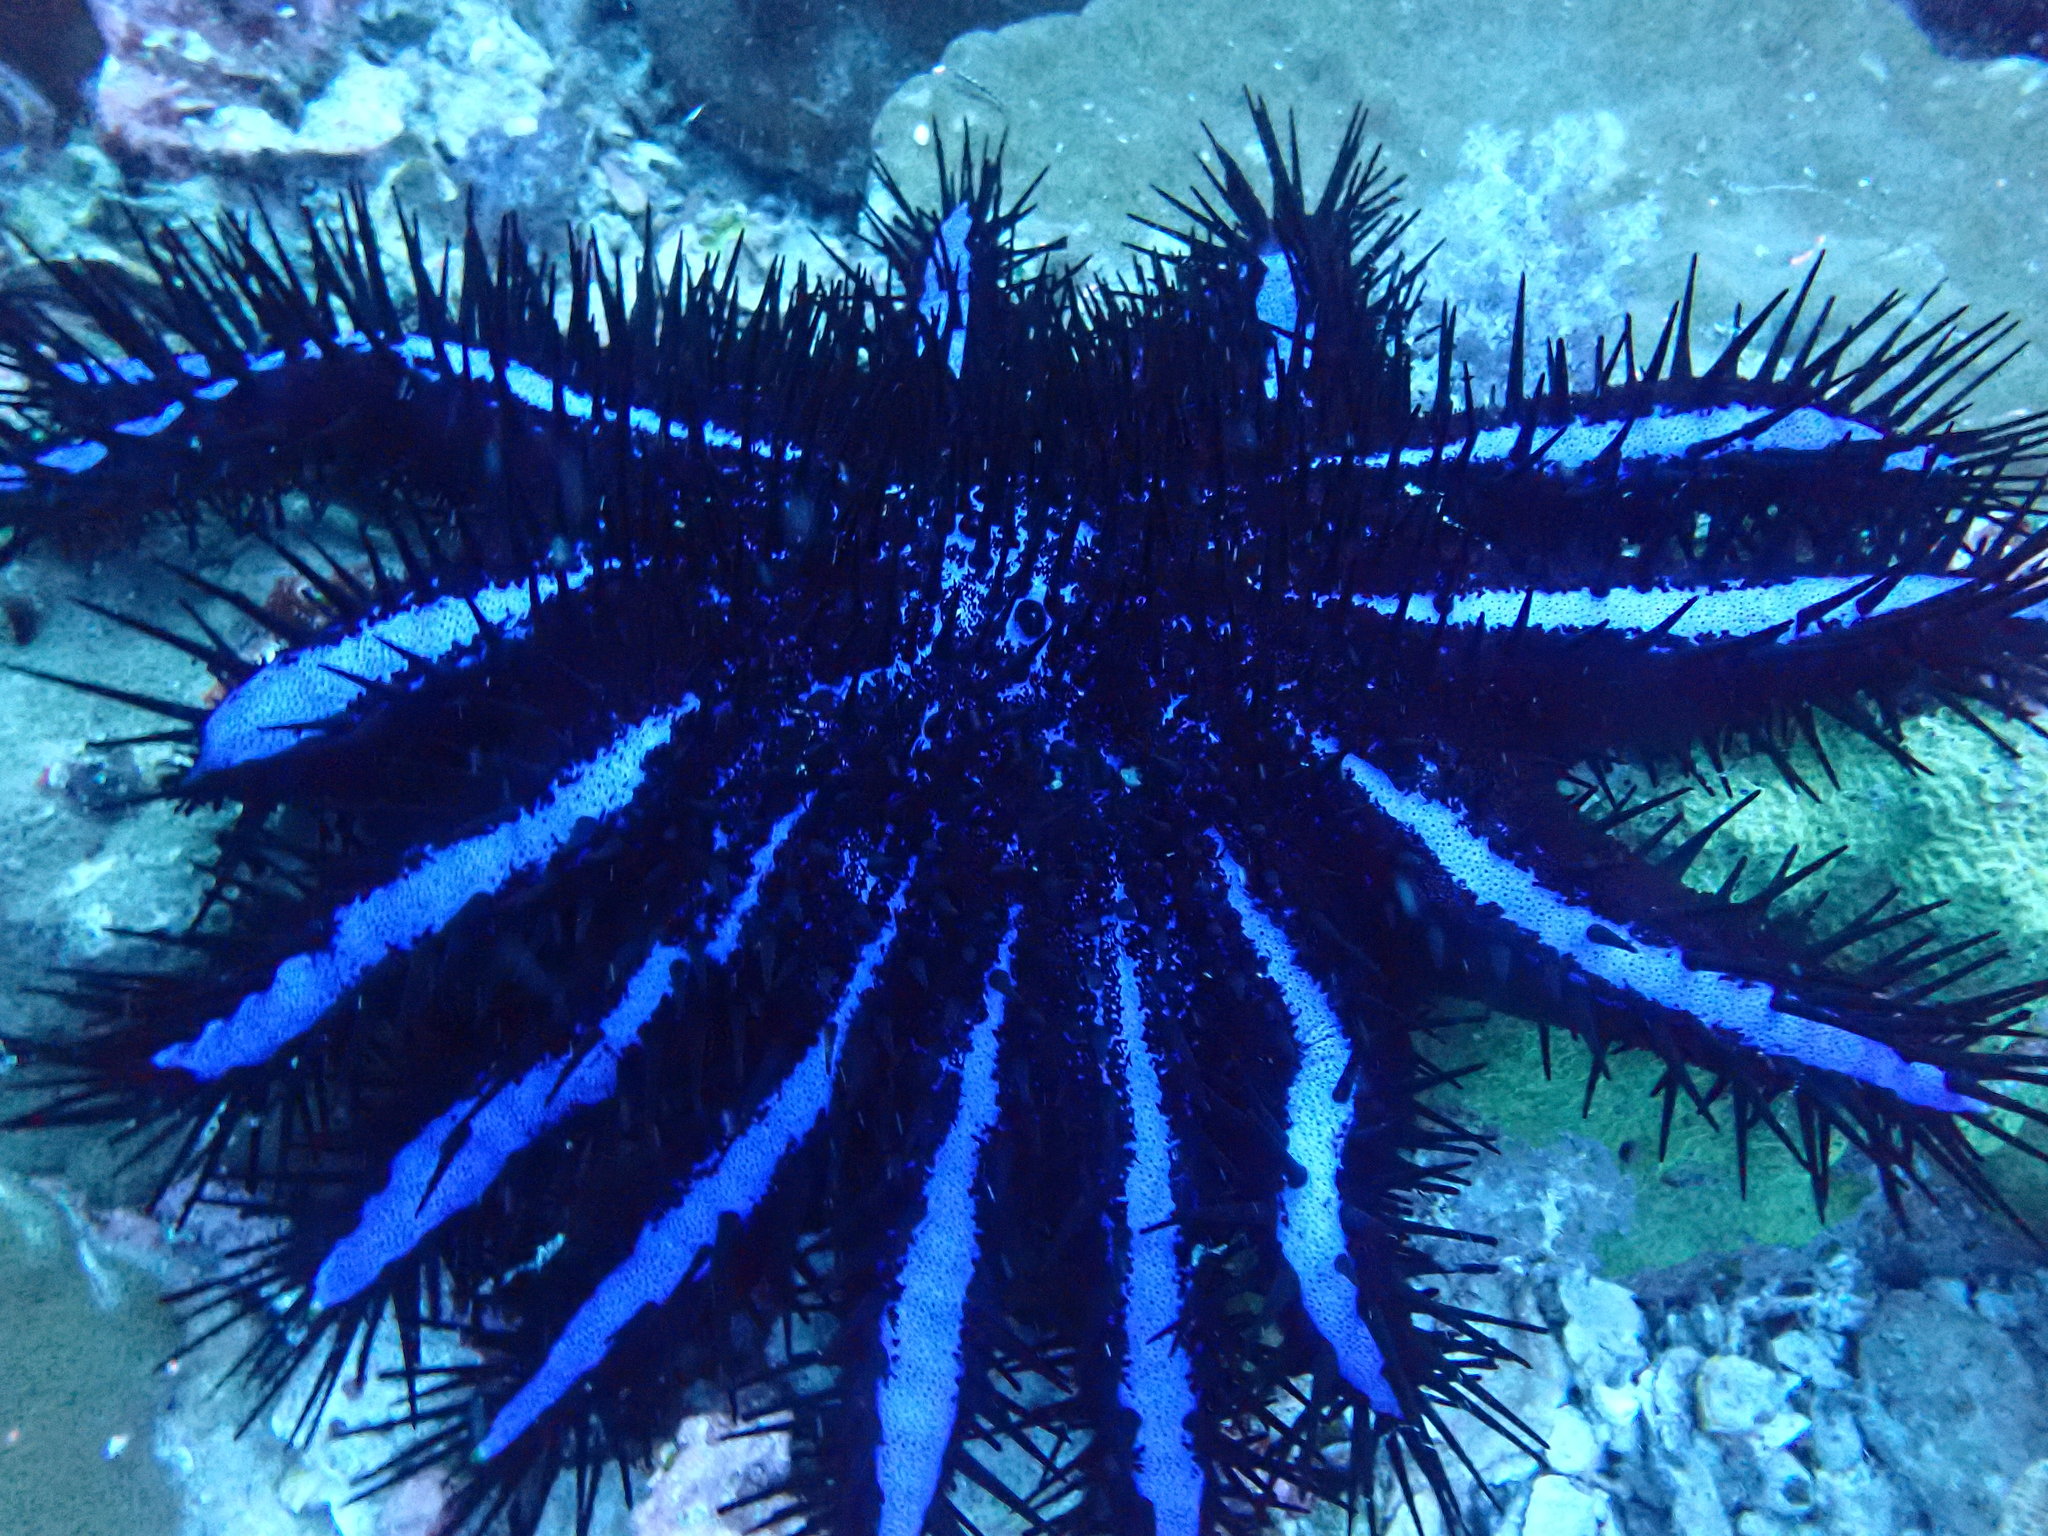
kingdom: Animalia
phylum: Echinodermata
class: Asteroidea
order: Valvatida
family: Acanthasteridae
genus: Acanthaster
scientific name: Acanthaster planci
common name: Crown-of-thorns
